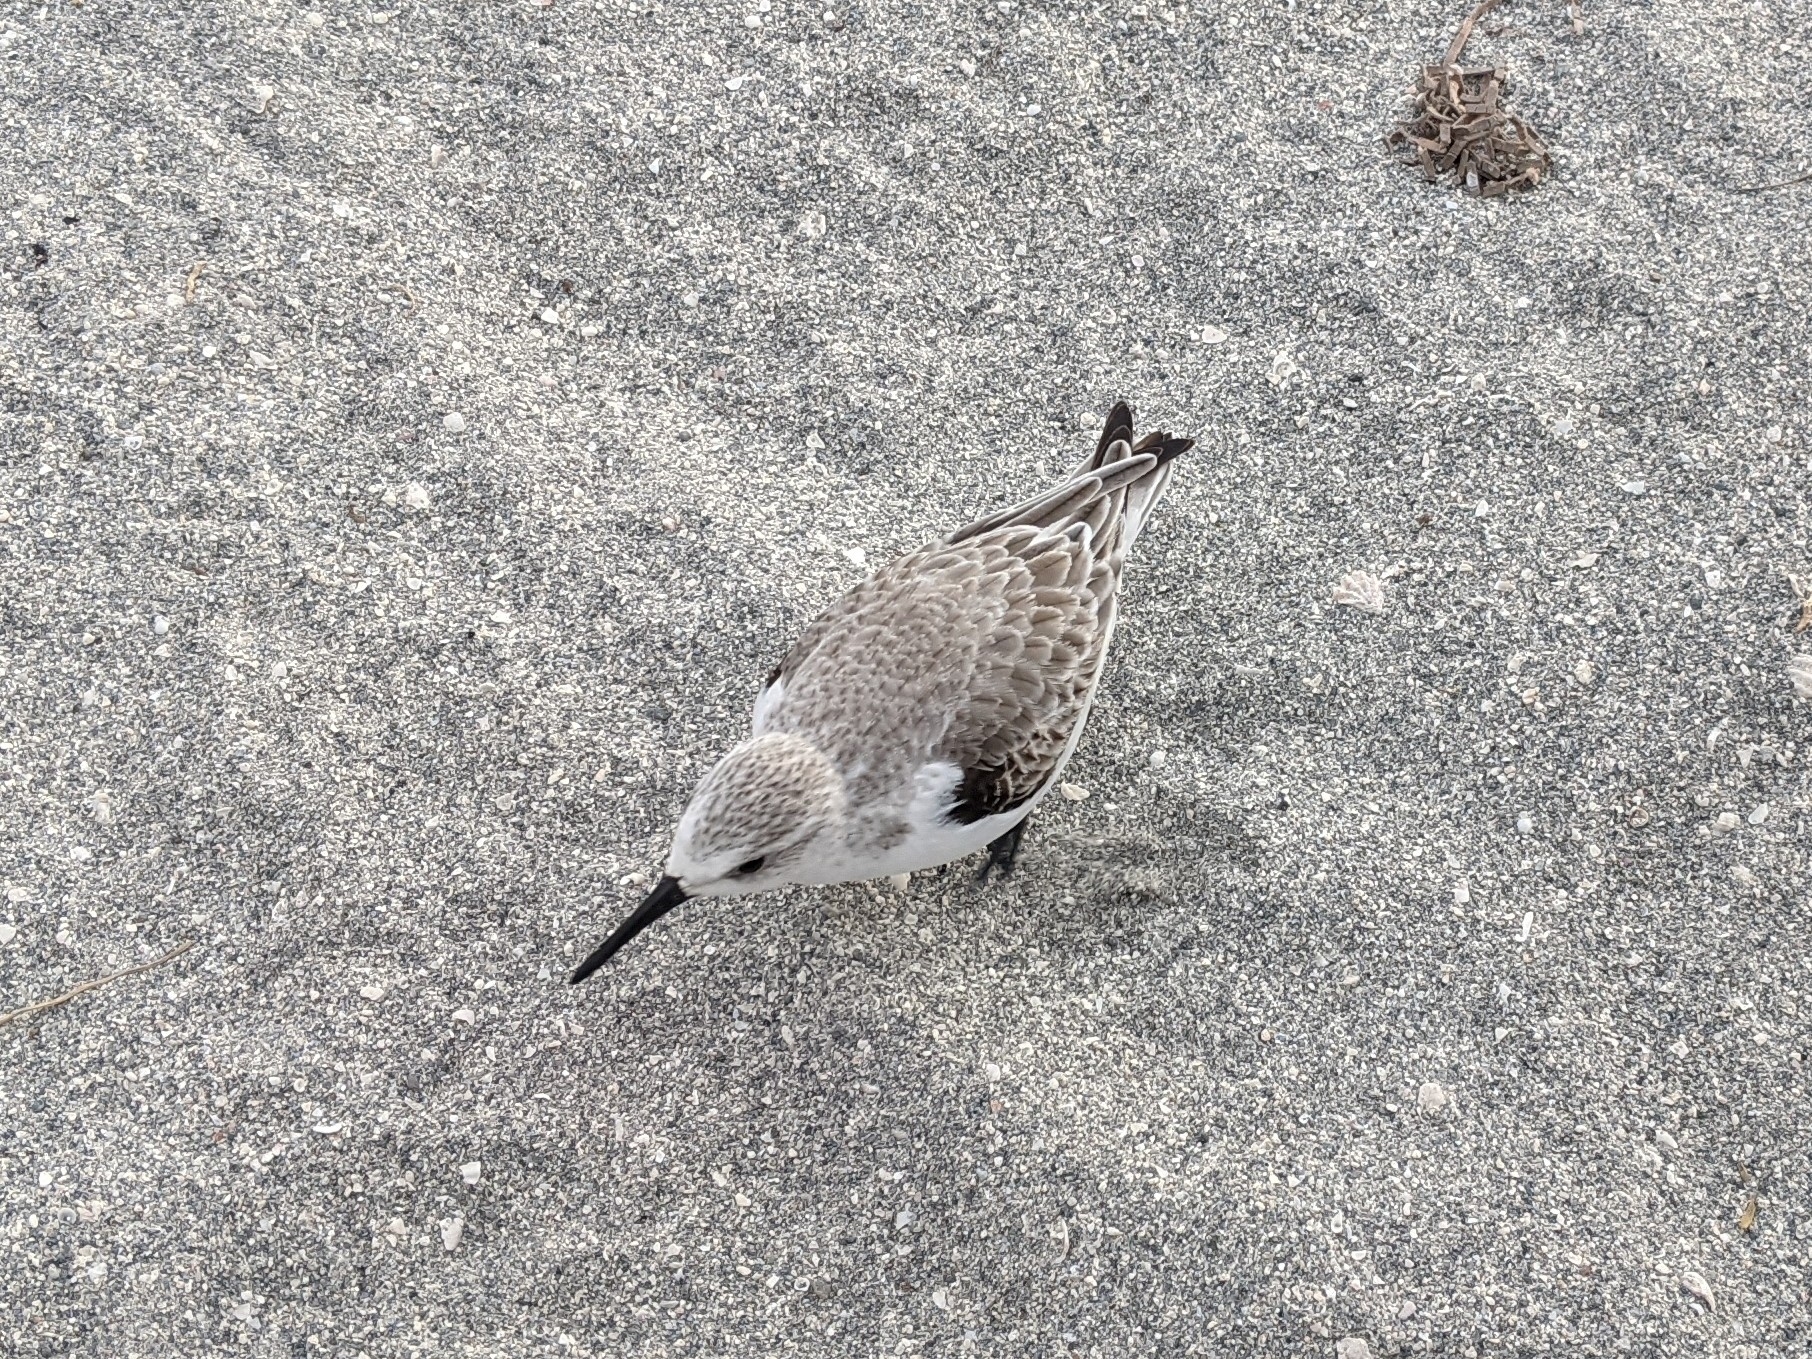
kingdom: Animalia
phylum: Chordata
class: Aves
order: Charadriiformes
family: Scolopacidae
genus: Calidris
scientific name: Calidris alba
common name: Sanderling
